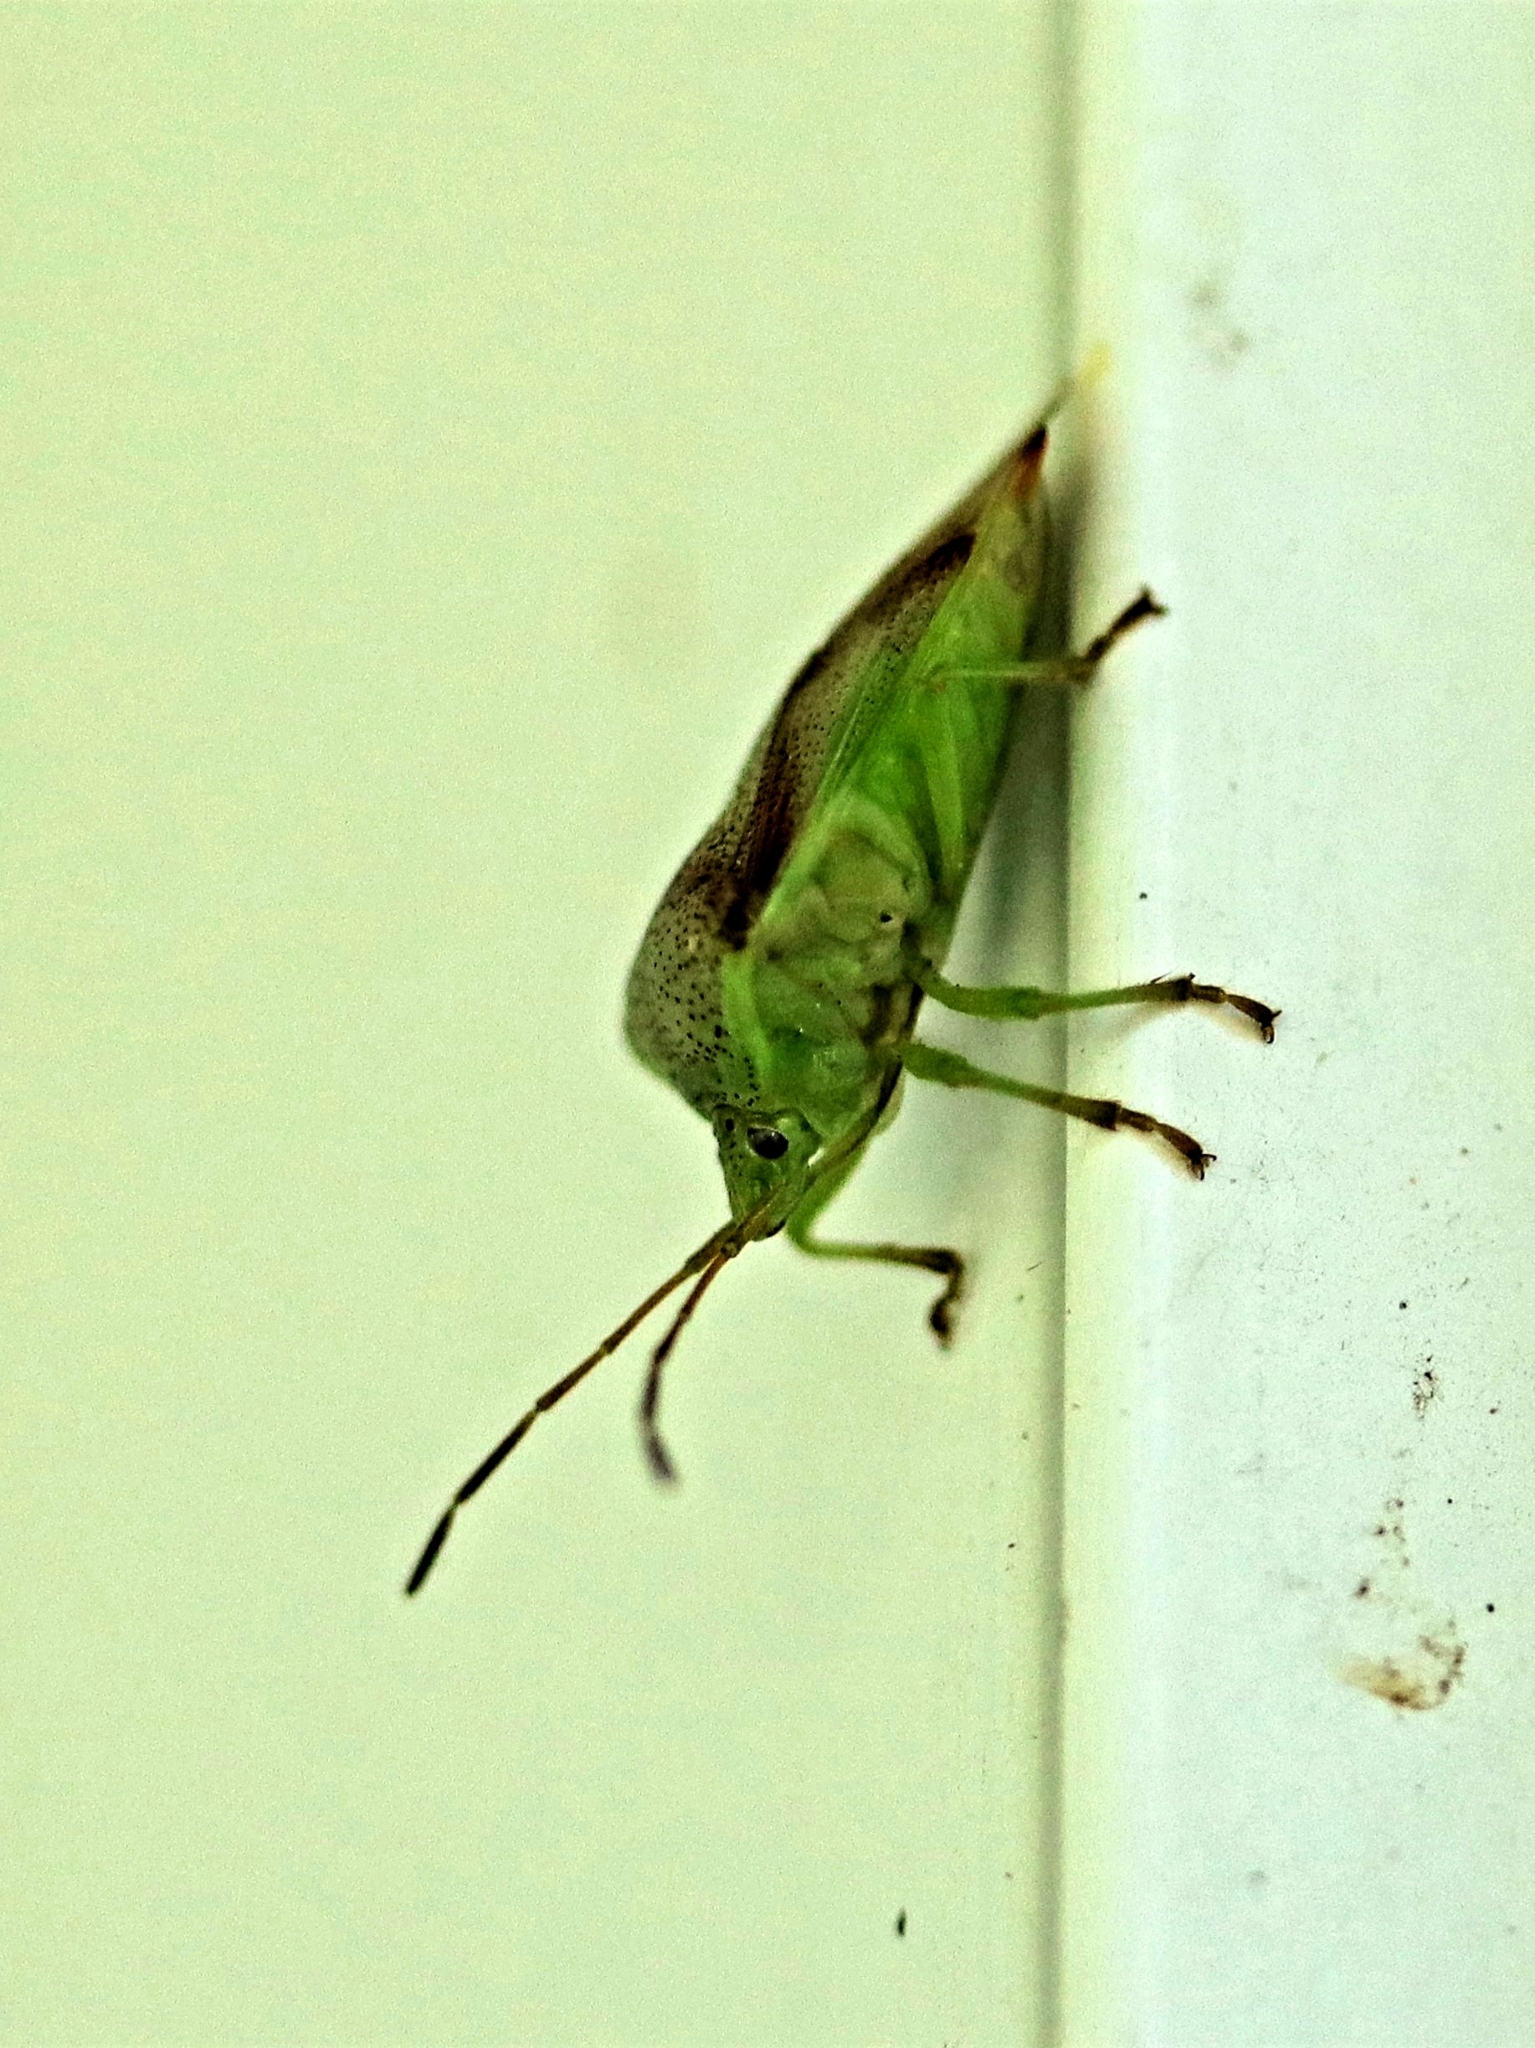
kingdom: Animalia
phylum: Arthropoda
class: Insecta
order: Hemiptera
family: Acanthosomatidae
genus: Elasmostethus
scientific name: Elasmostethus cruciatus
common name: Red-cross shield bug
